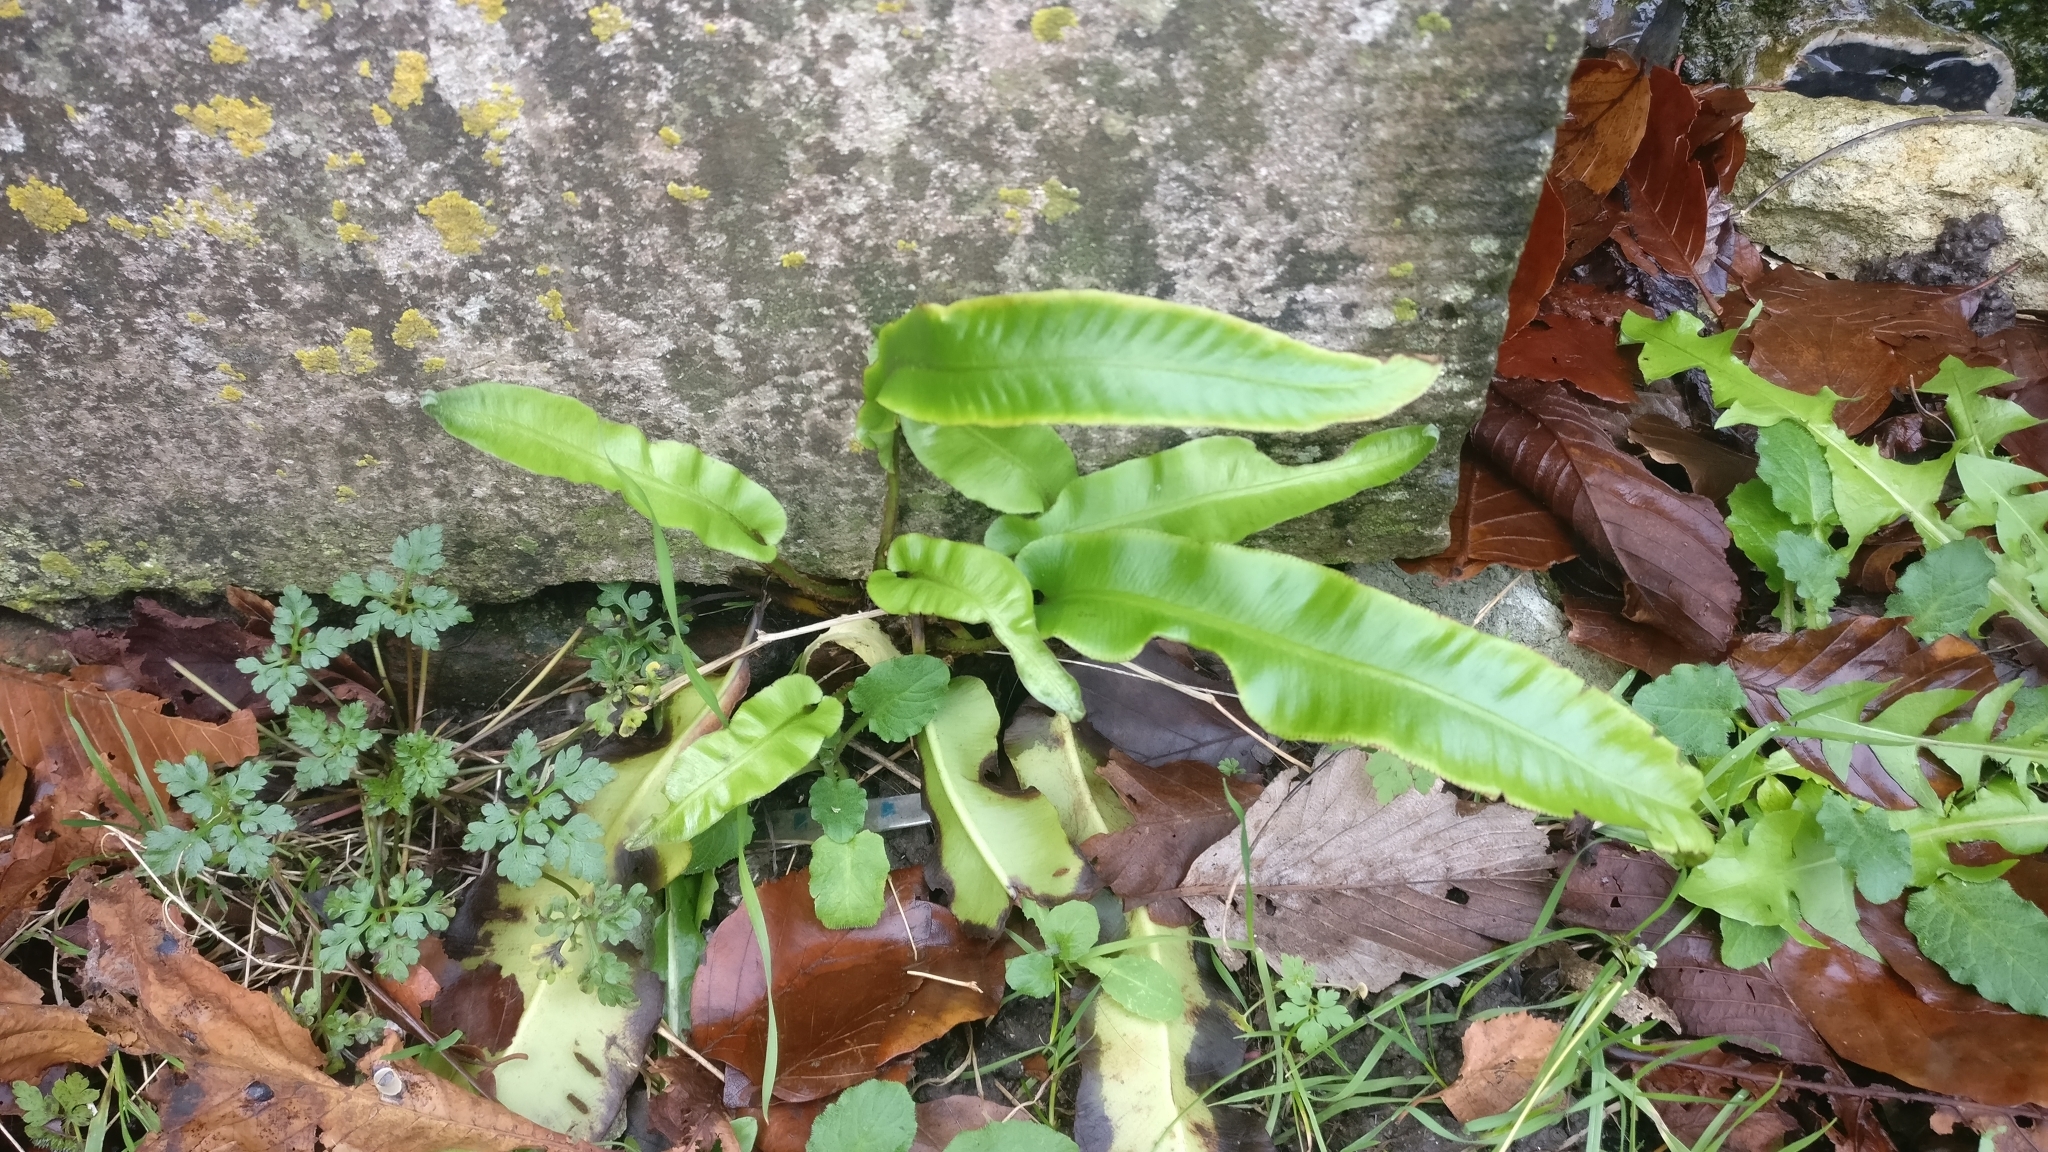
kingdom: Plantae
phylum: Tracheophyta
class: Polypodiopsida
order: Polypodiales
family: Aspleniaceae
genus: Asplenium
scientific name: Asplenium scolopendrium
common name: Hart's-tongue fern
